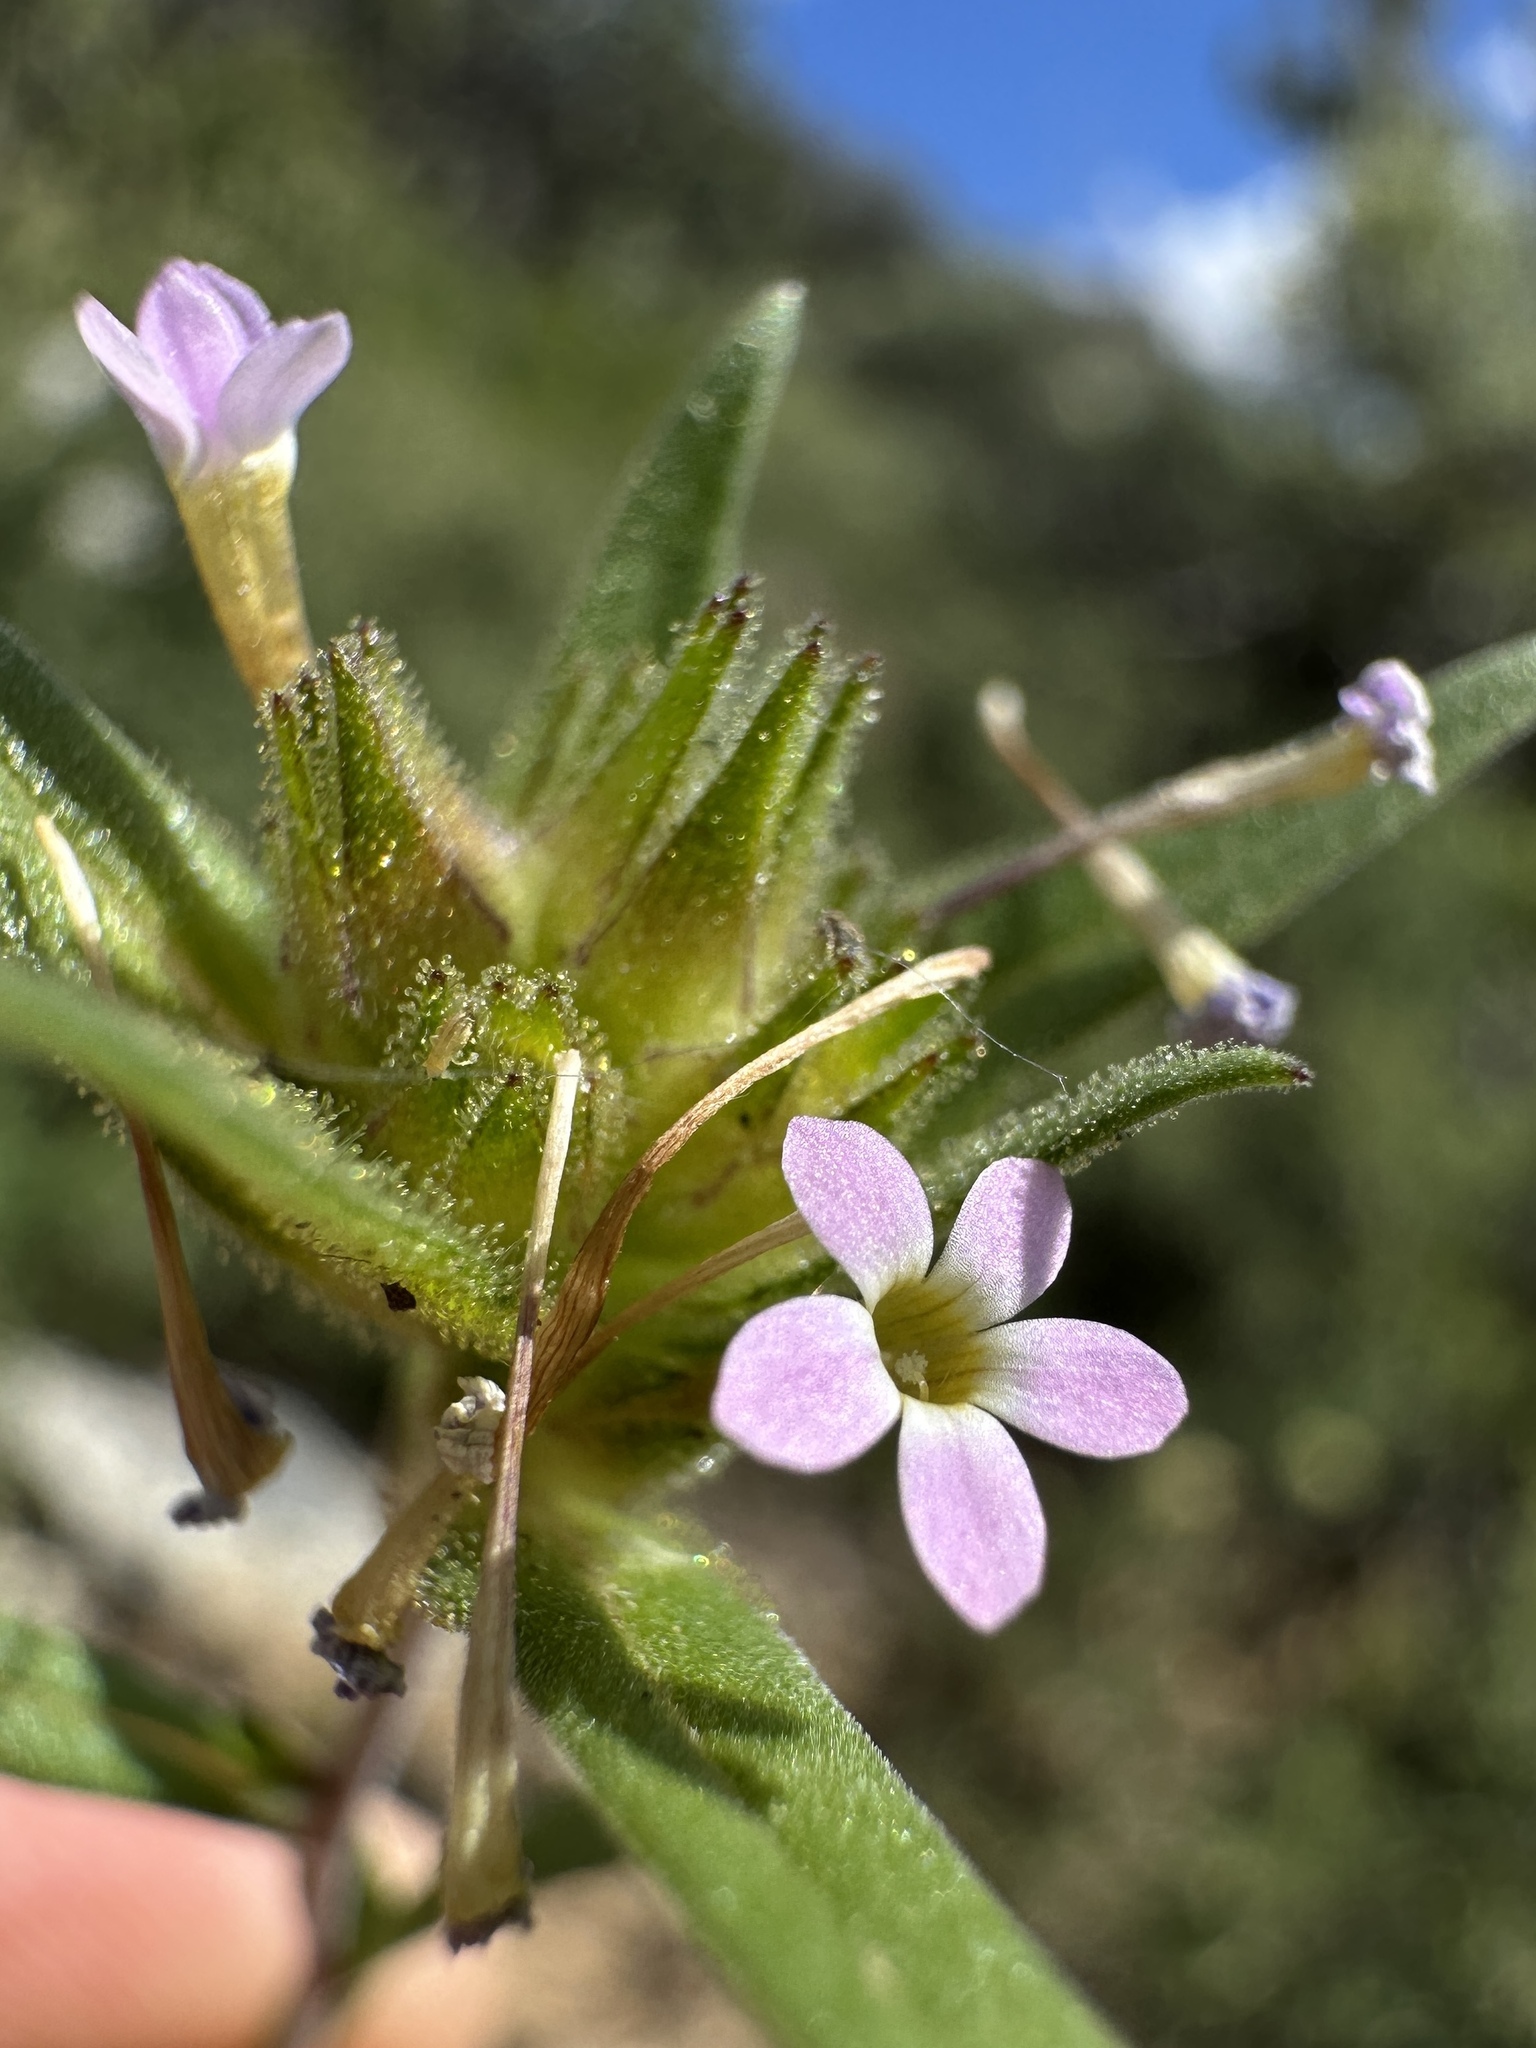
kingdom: Plantae
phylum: Tracheophyta
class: Magnoliopsida
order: Ericales
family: Polemoniaceae
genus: Collomia
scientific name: Collomia linearis
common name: Tiny trumpet
